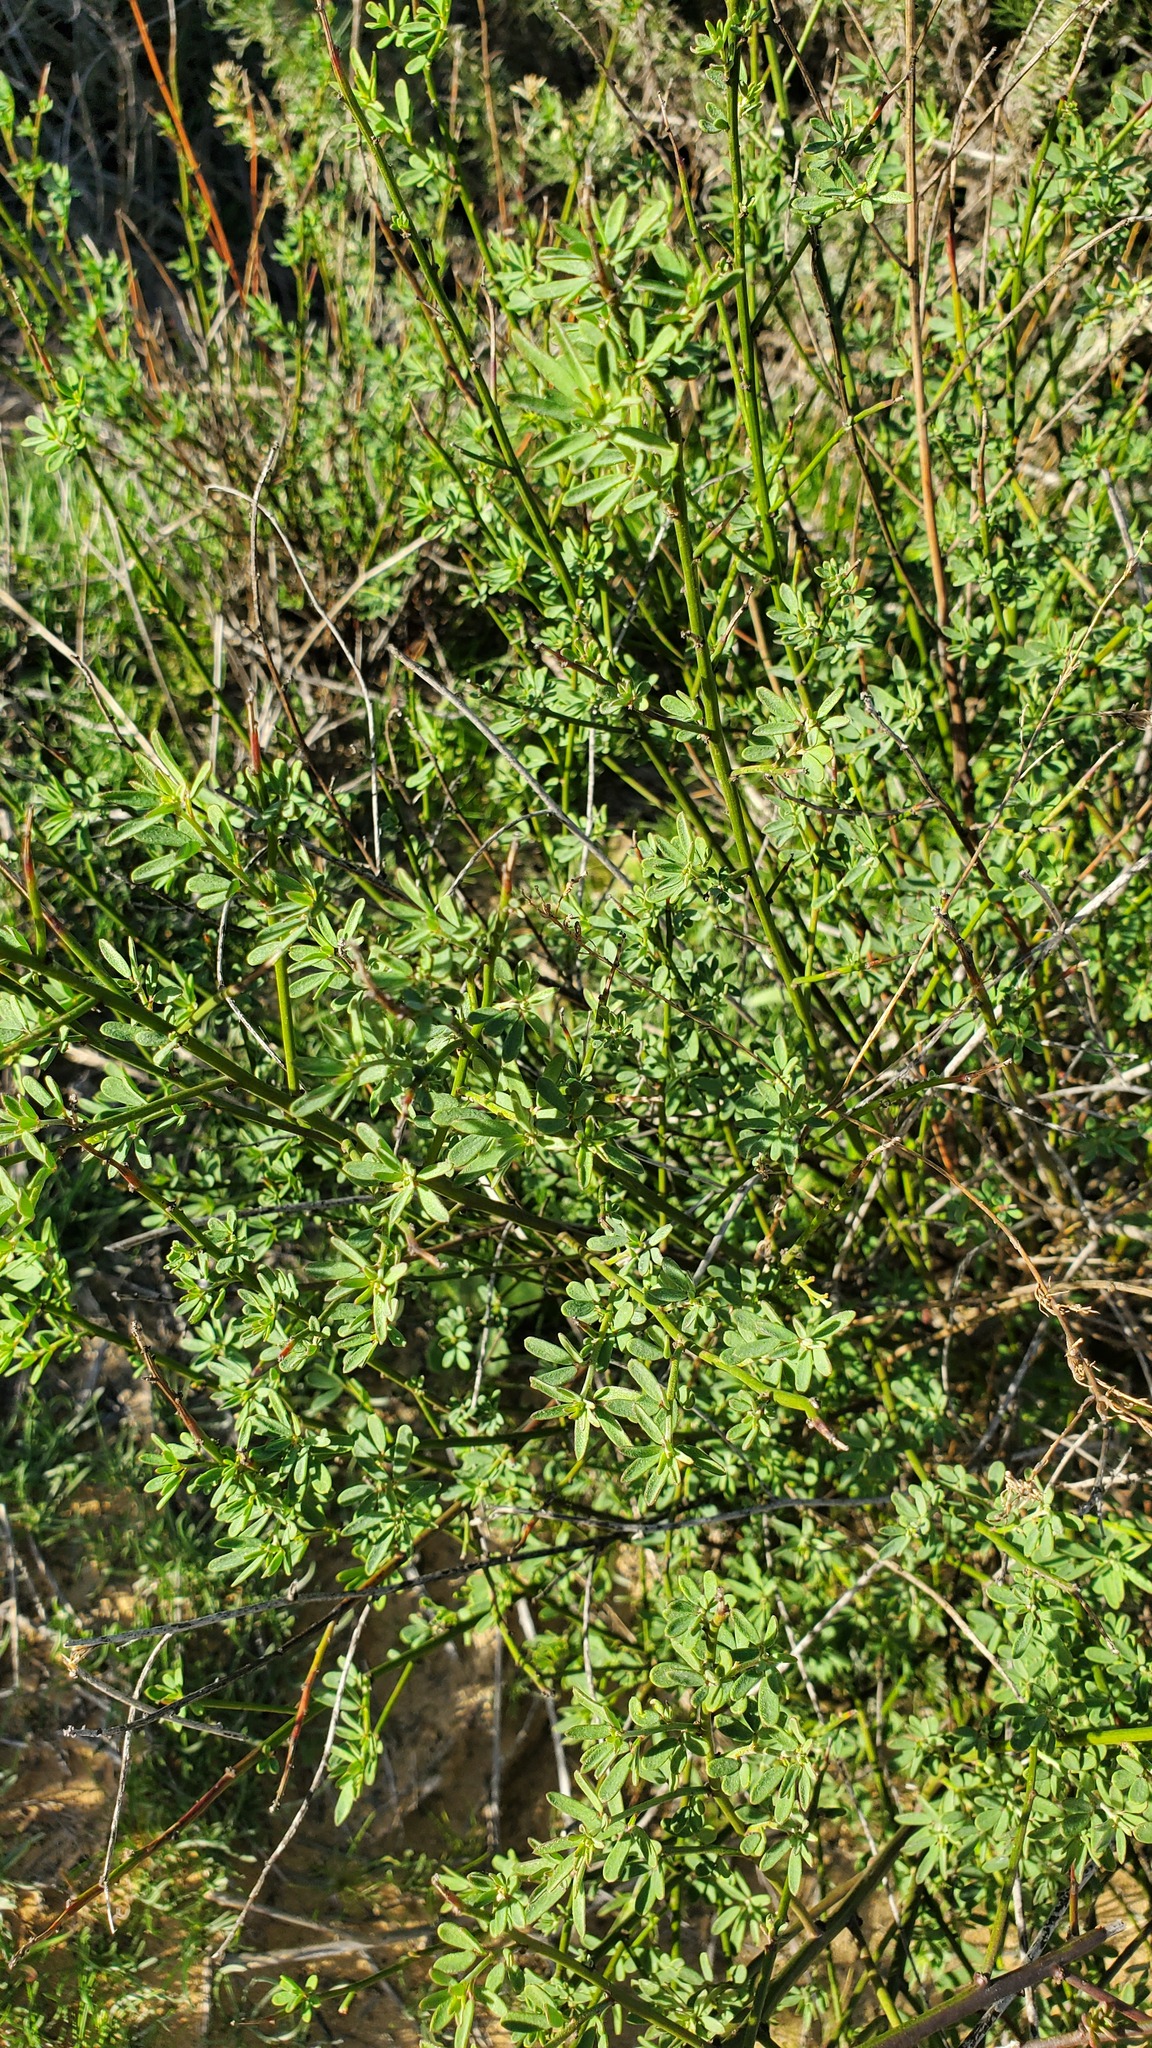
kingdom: Plantae
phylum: Tracheophyta
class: Magnoliopsida
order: Fabales
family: Fabaceae
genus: Acmispon
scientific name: Acmispon glaber
